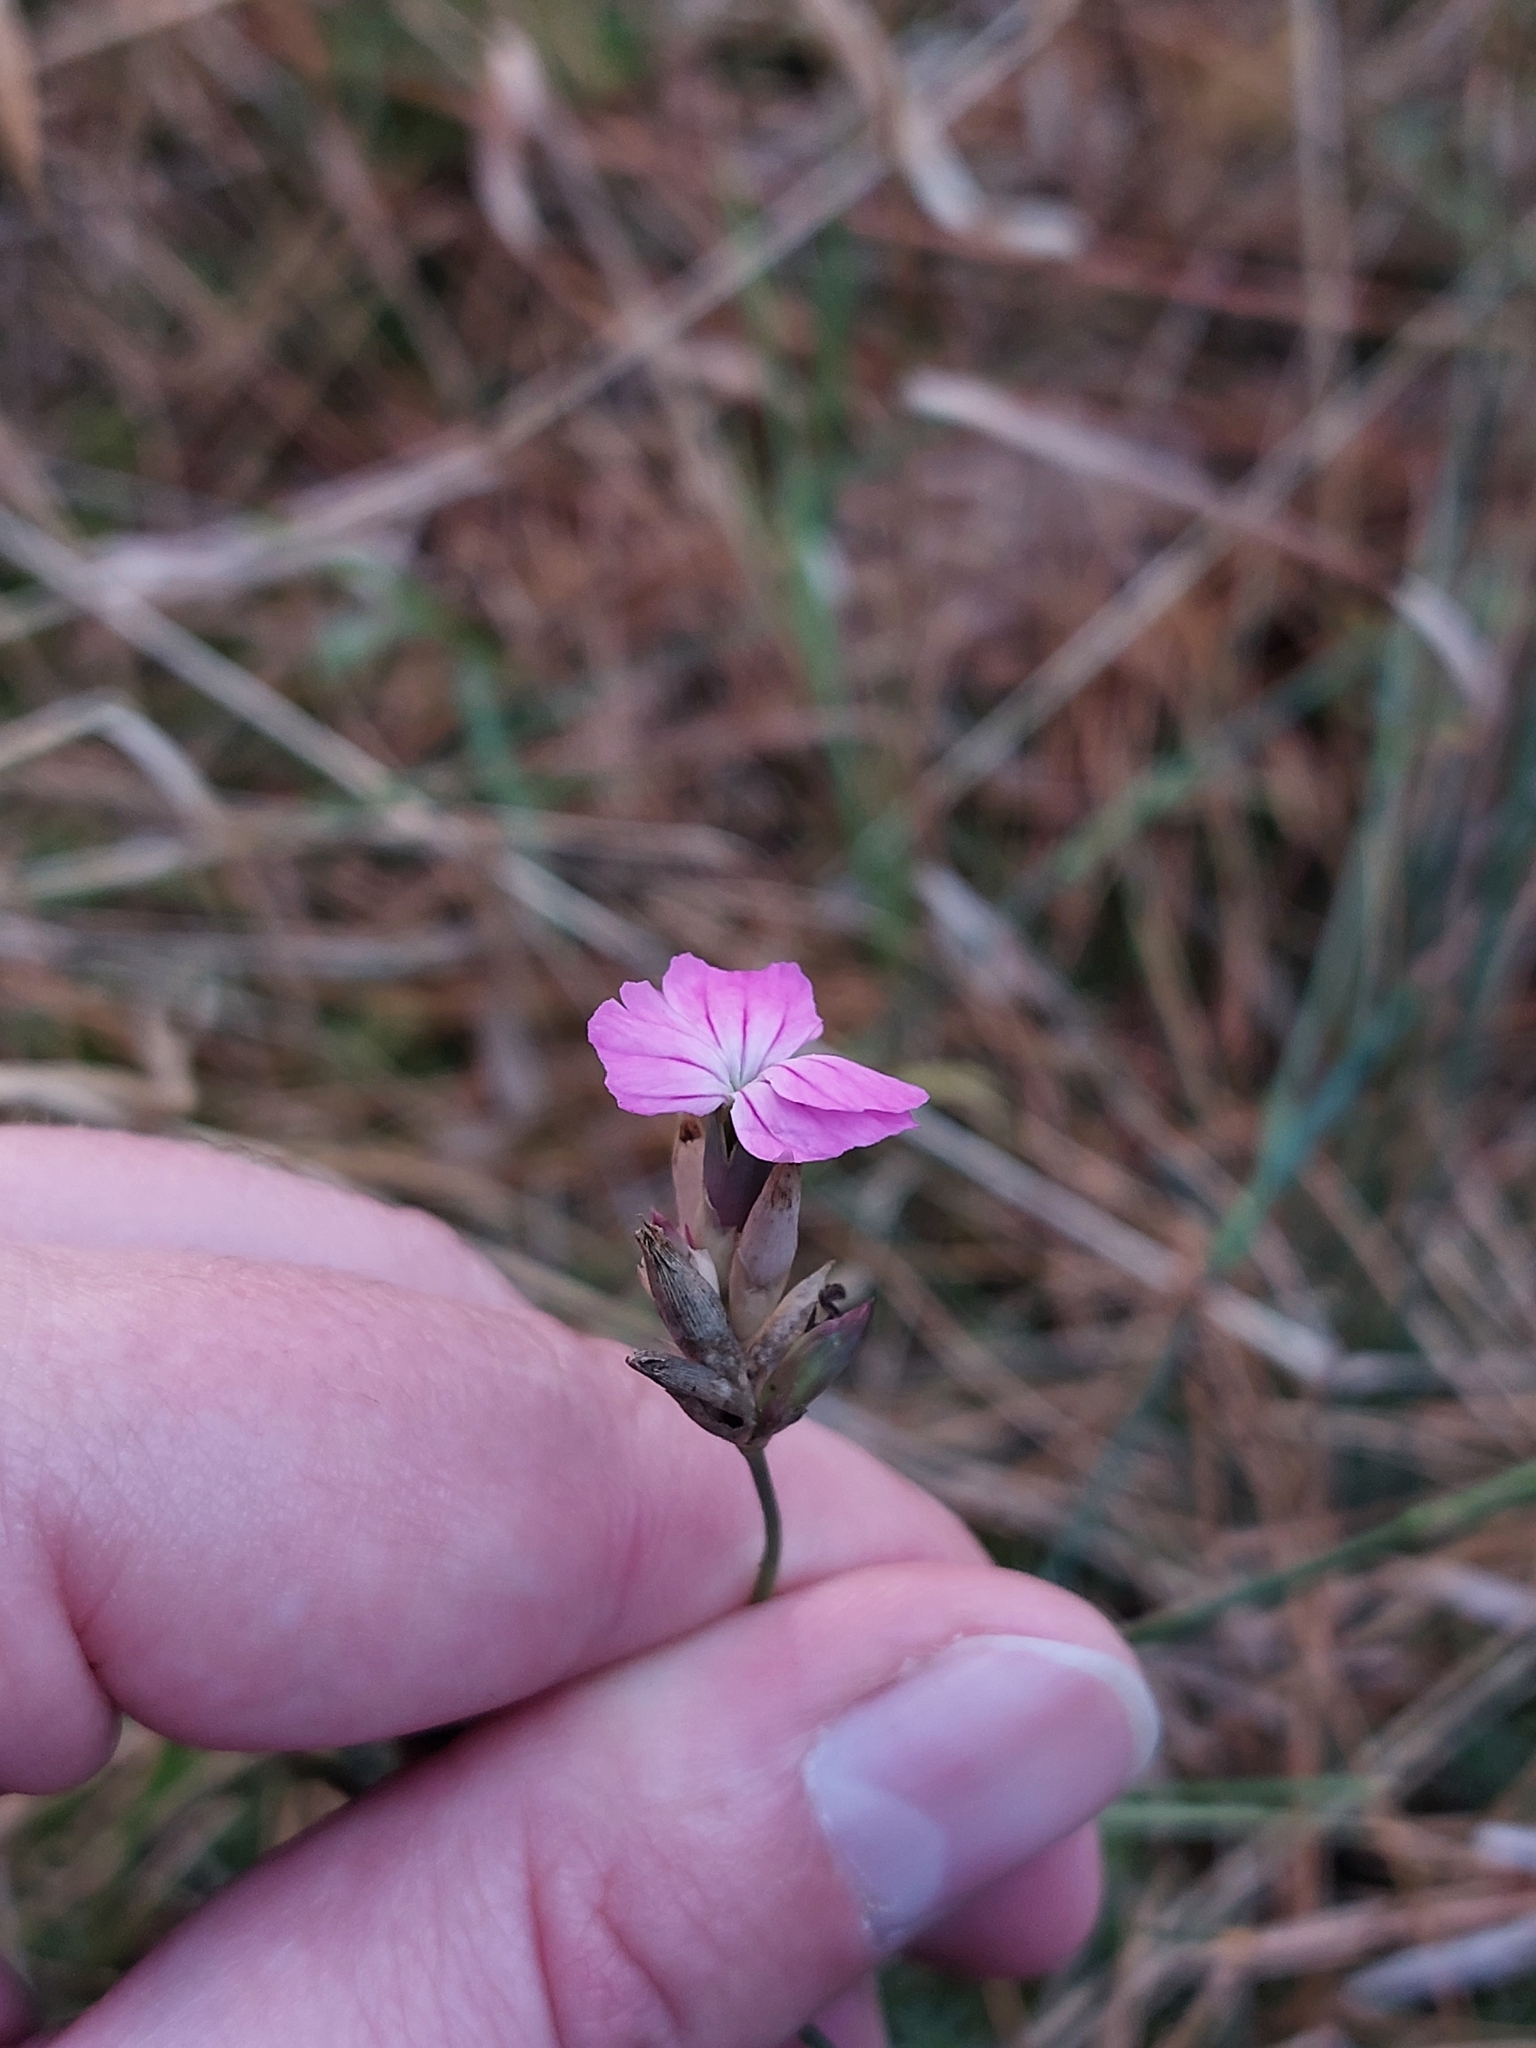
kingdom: Plantae
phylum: Tracheophyta
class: Magnoliopsida
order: Caryophyllales
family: Caryophyllaceae
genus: Dianthus
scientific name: Dianthus borbasii
